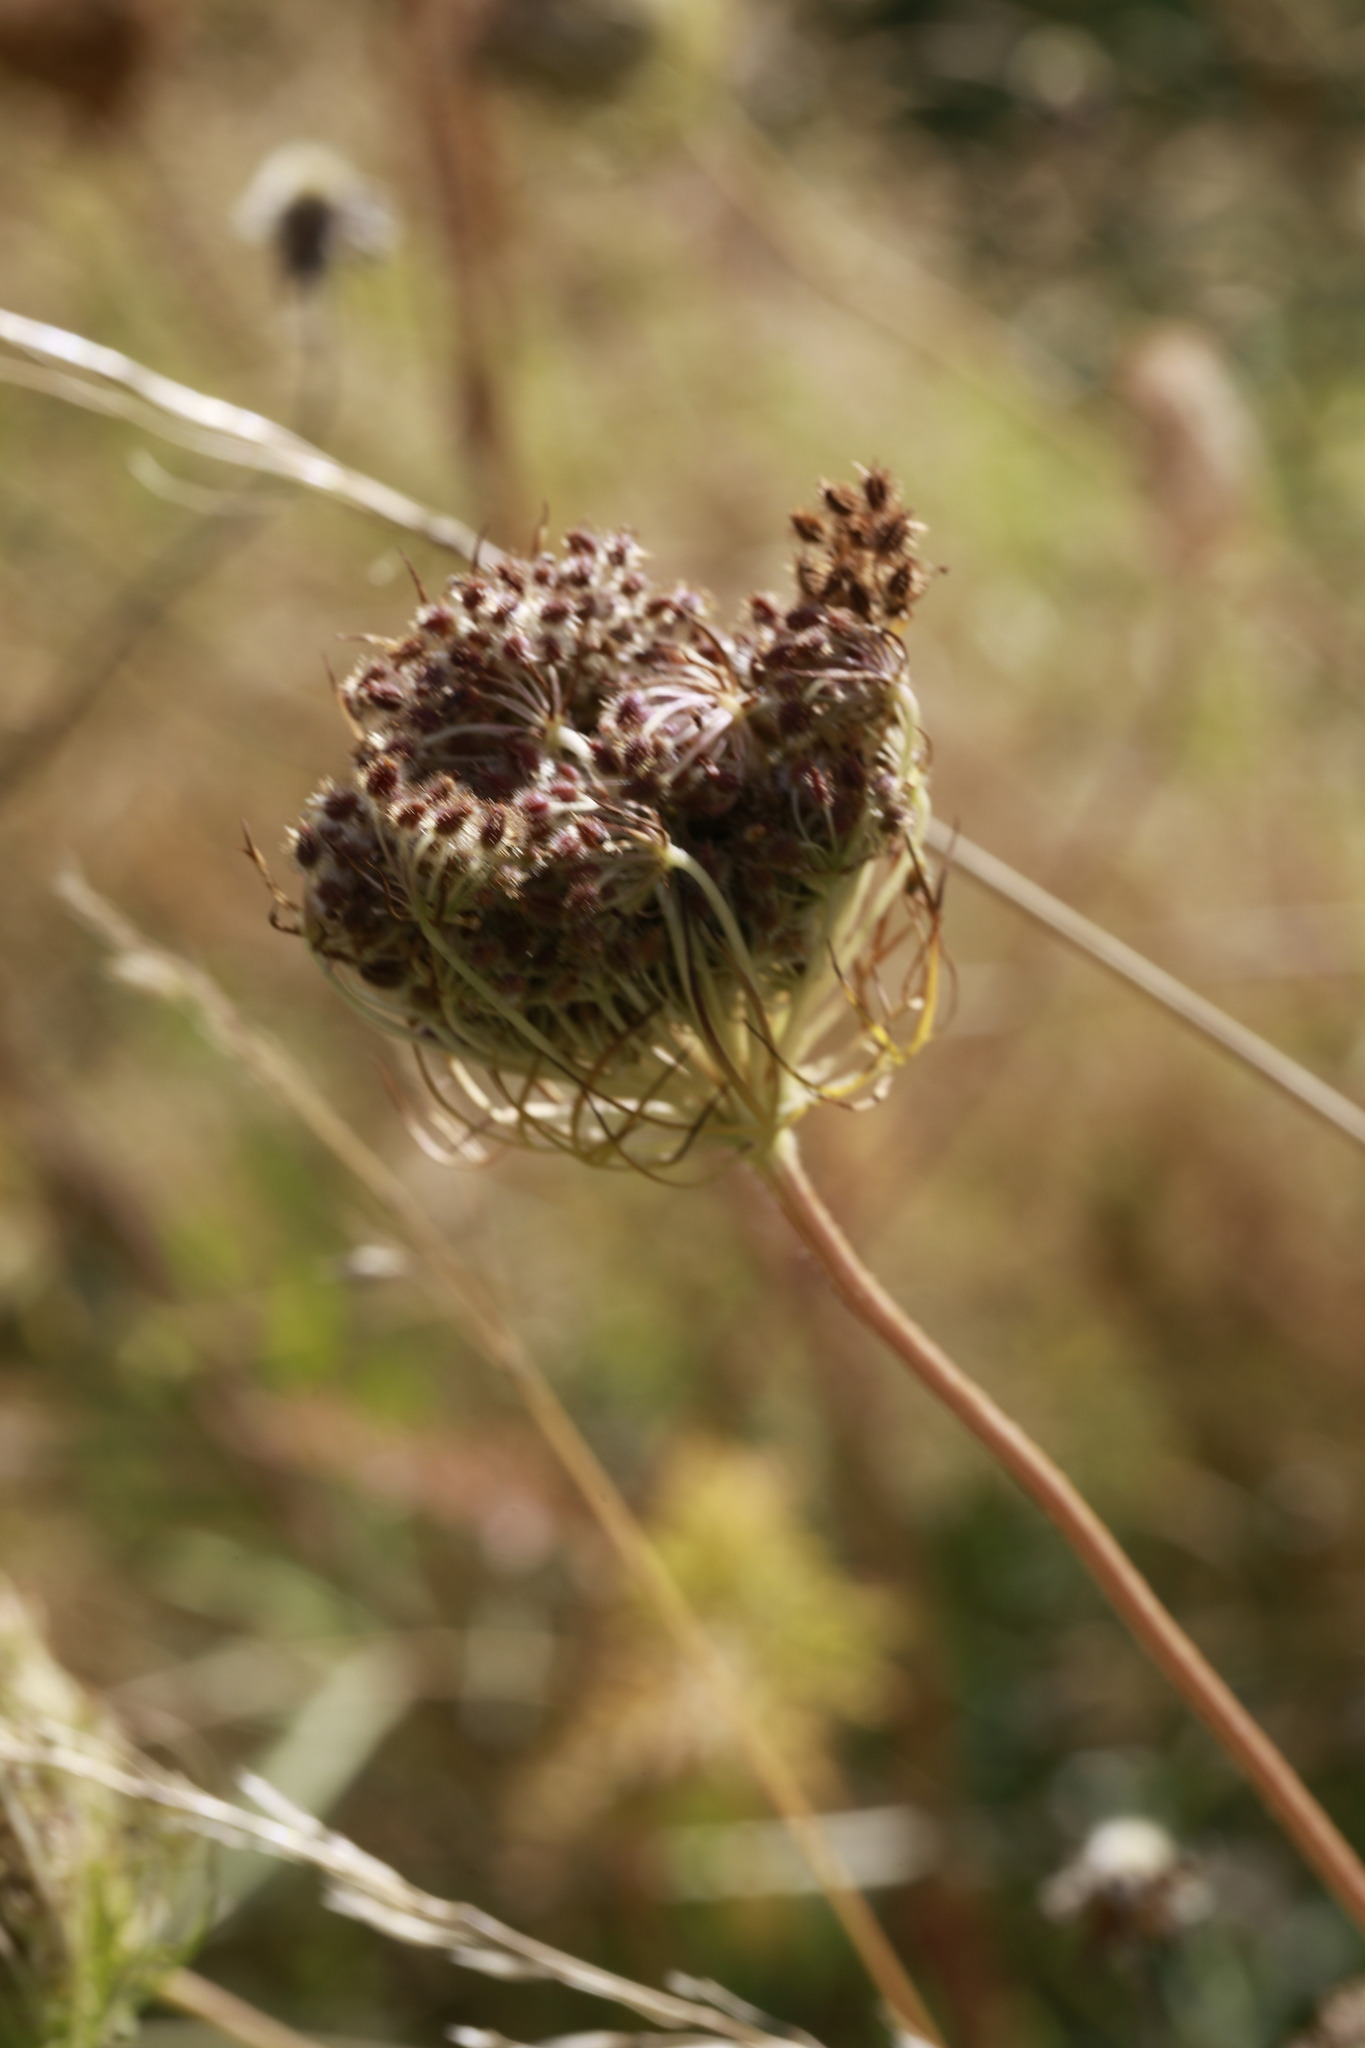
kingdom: Plantae
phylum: Tracheophyta
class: Magnoliopsida
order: Apiales
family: Apiaceae
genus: Daucus
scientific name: Daucus carota
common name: Wild carrot
